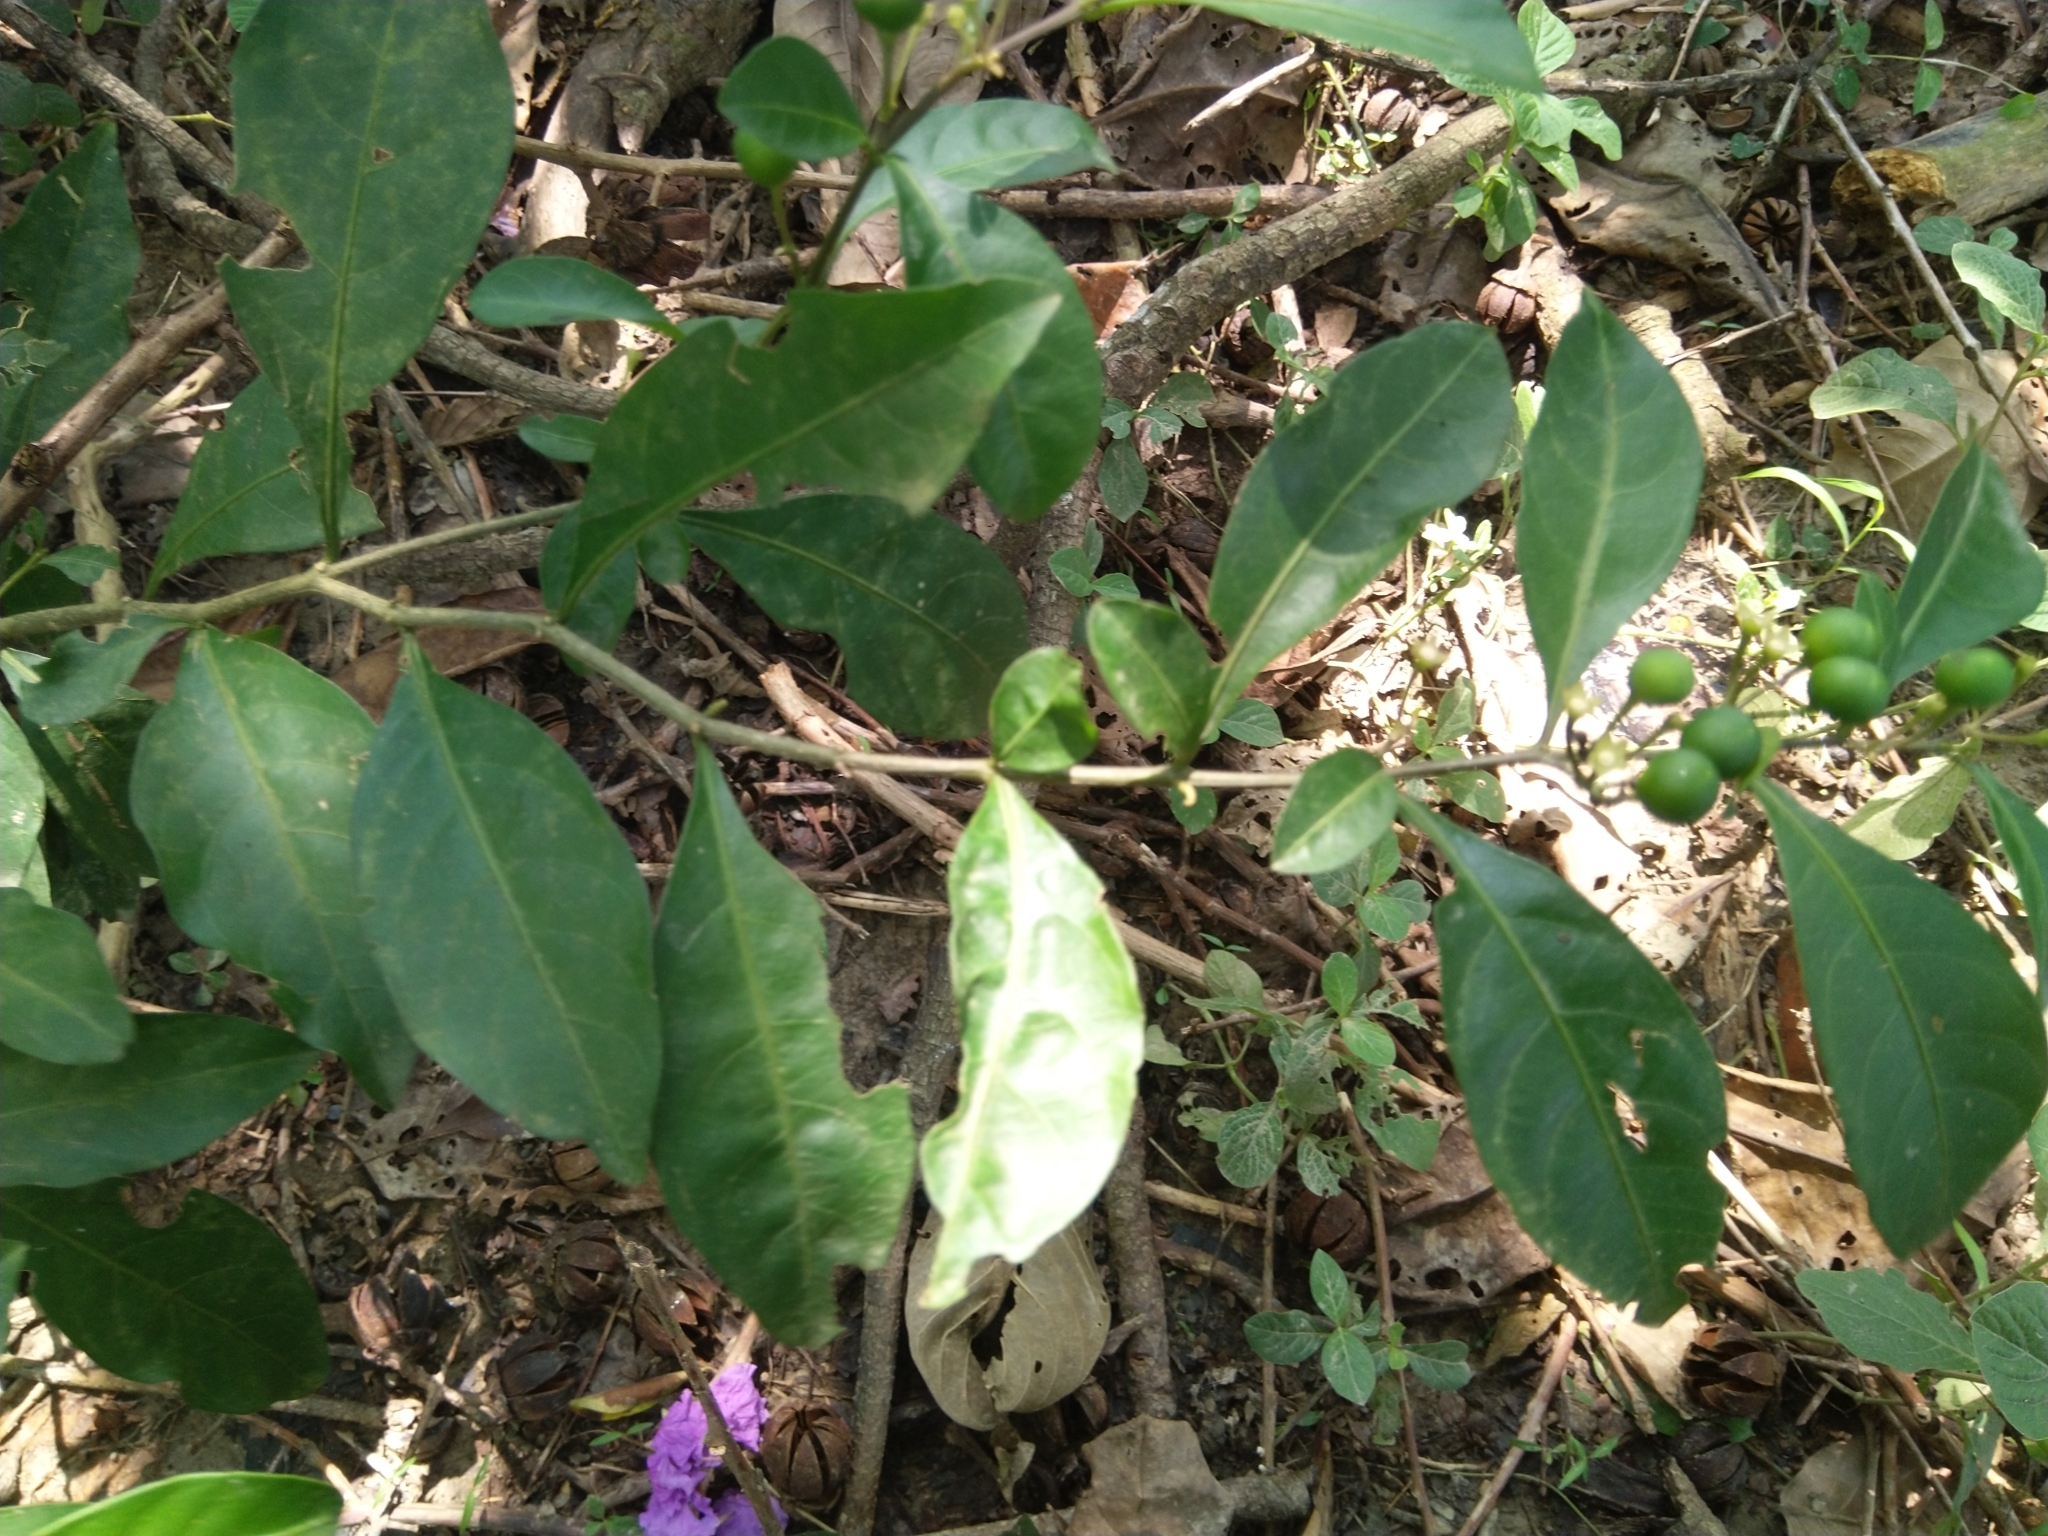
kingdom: Plantae
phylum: Tracheophyta
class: Magnoliopsida
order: Solanales
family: Solanaceae
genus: Solanum
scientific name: Solanum diphyllum
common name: Twoleaf nightshade
